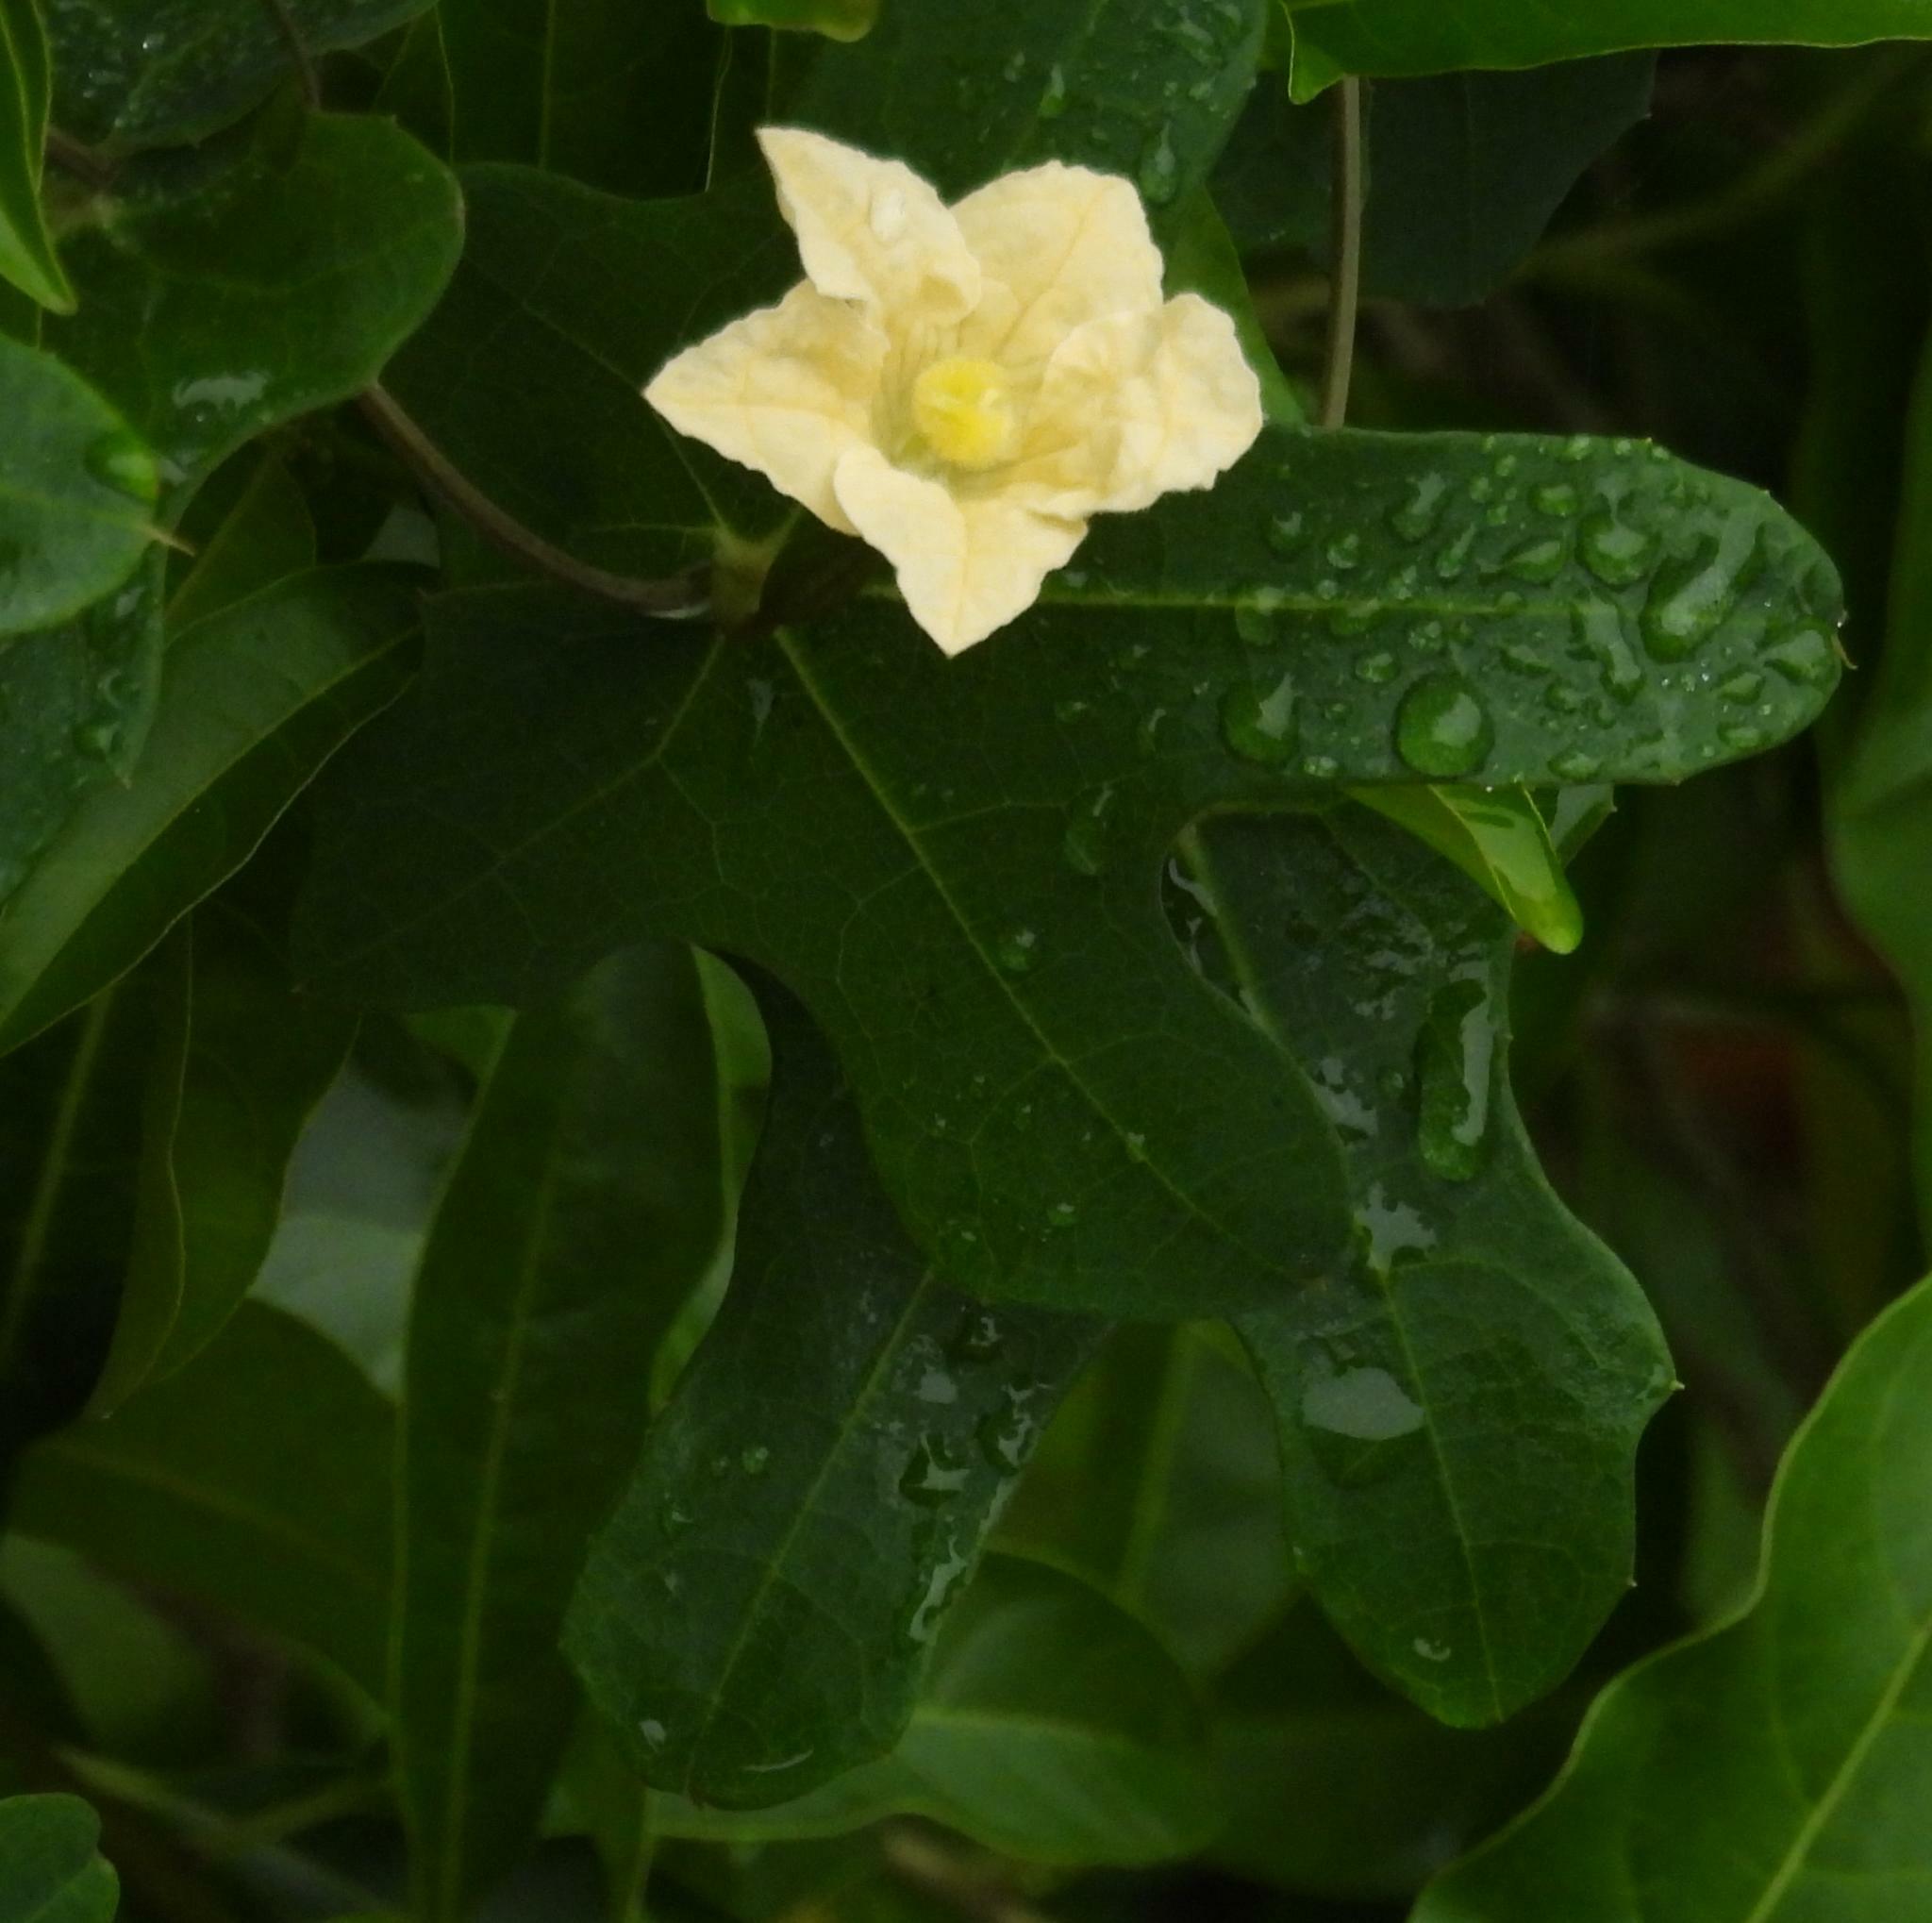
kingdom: Plantae
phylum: Tracheophyta
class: Magnoliopsida
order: Cucurbitales
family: Cucurbitaceae
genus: Coccinia
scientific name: Coccinia quinqueloba
